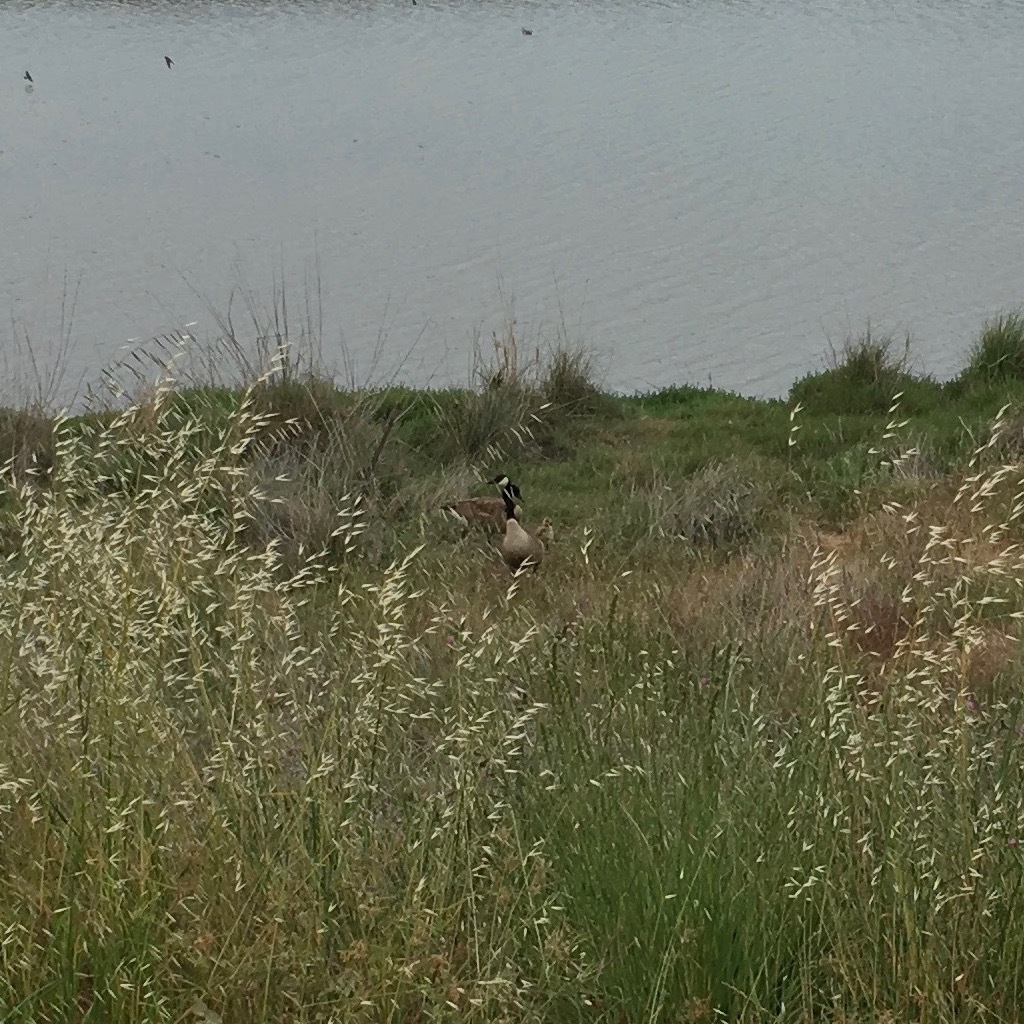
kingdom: Animalia
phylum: Chordata
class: Aves
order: Anseriformes
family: Anatidae
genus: Branta
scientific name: Branta canadensis
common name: Canada goose
